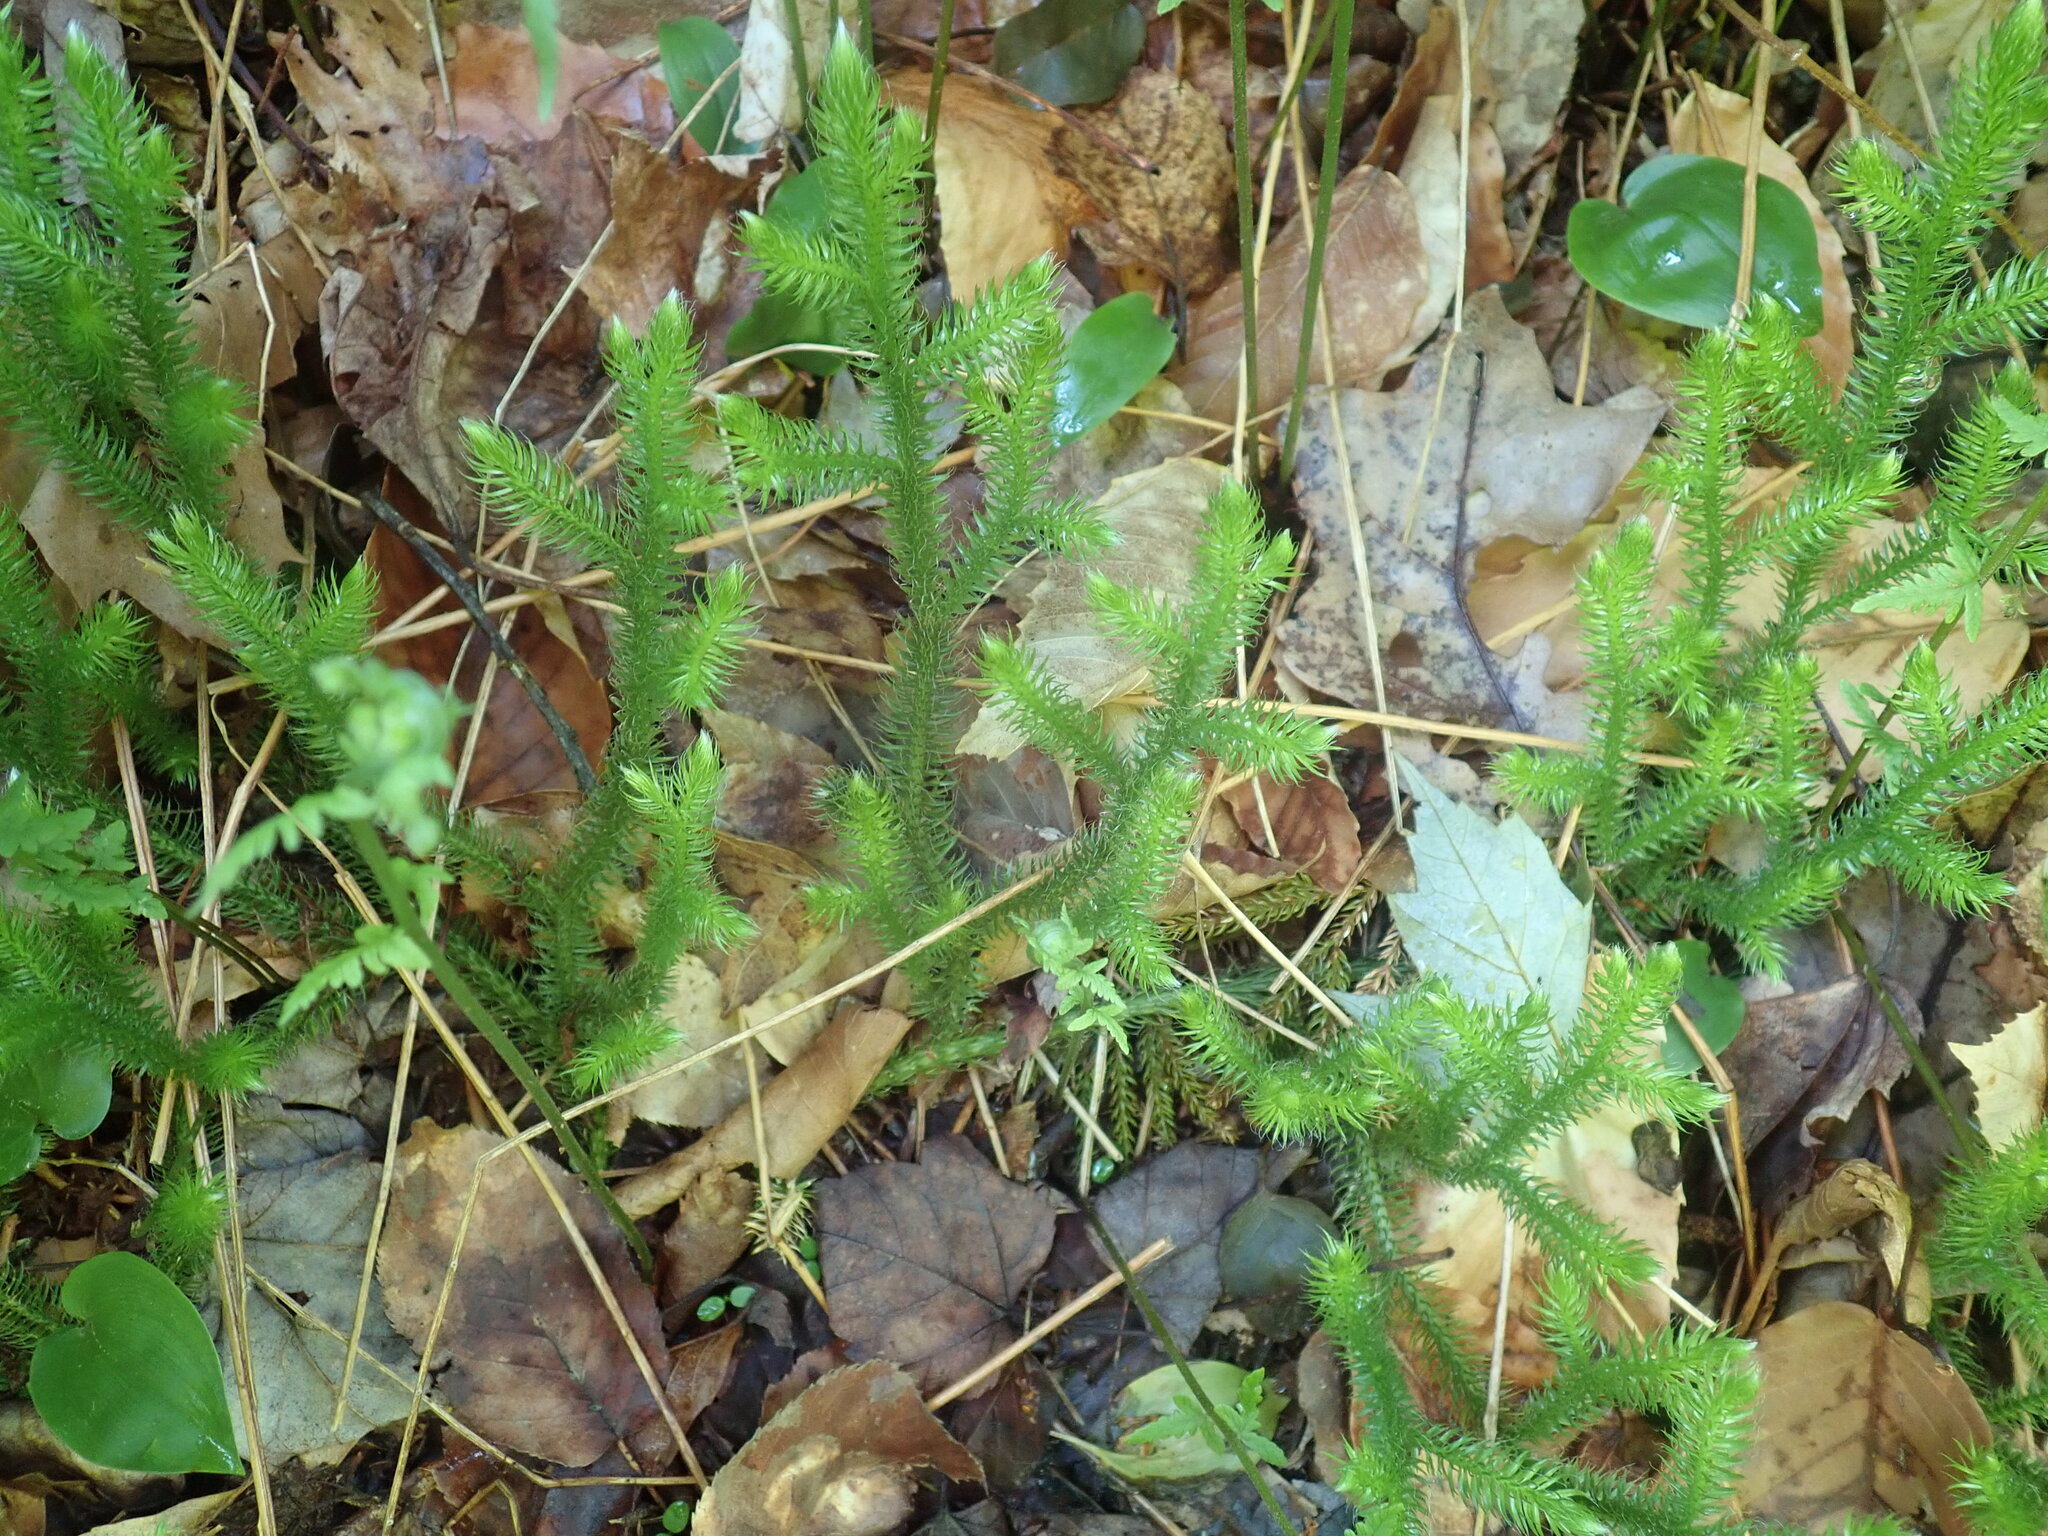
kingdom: Plantae
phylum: Tracheophyta
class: Lycopodiopsida
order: Lycopodiales
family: Lycopodiaceae
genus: Lycopodium
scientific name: Lycopodium clavatum
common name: Stag's-horn clubmoss
